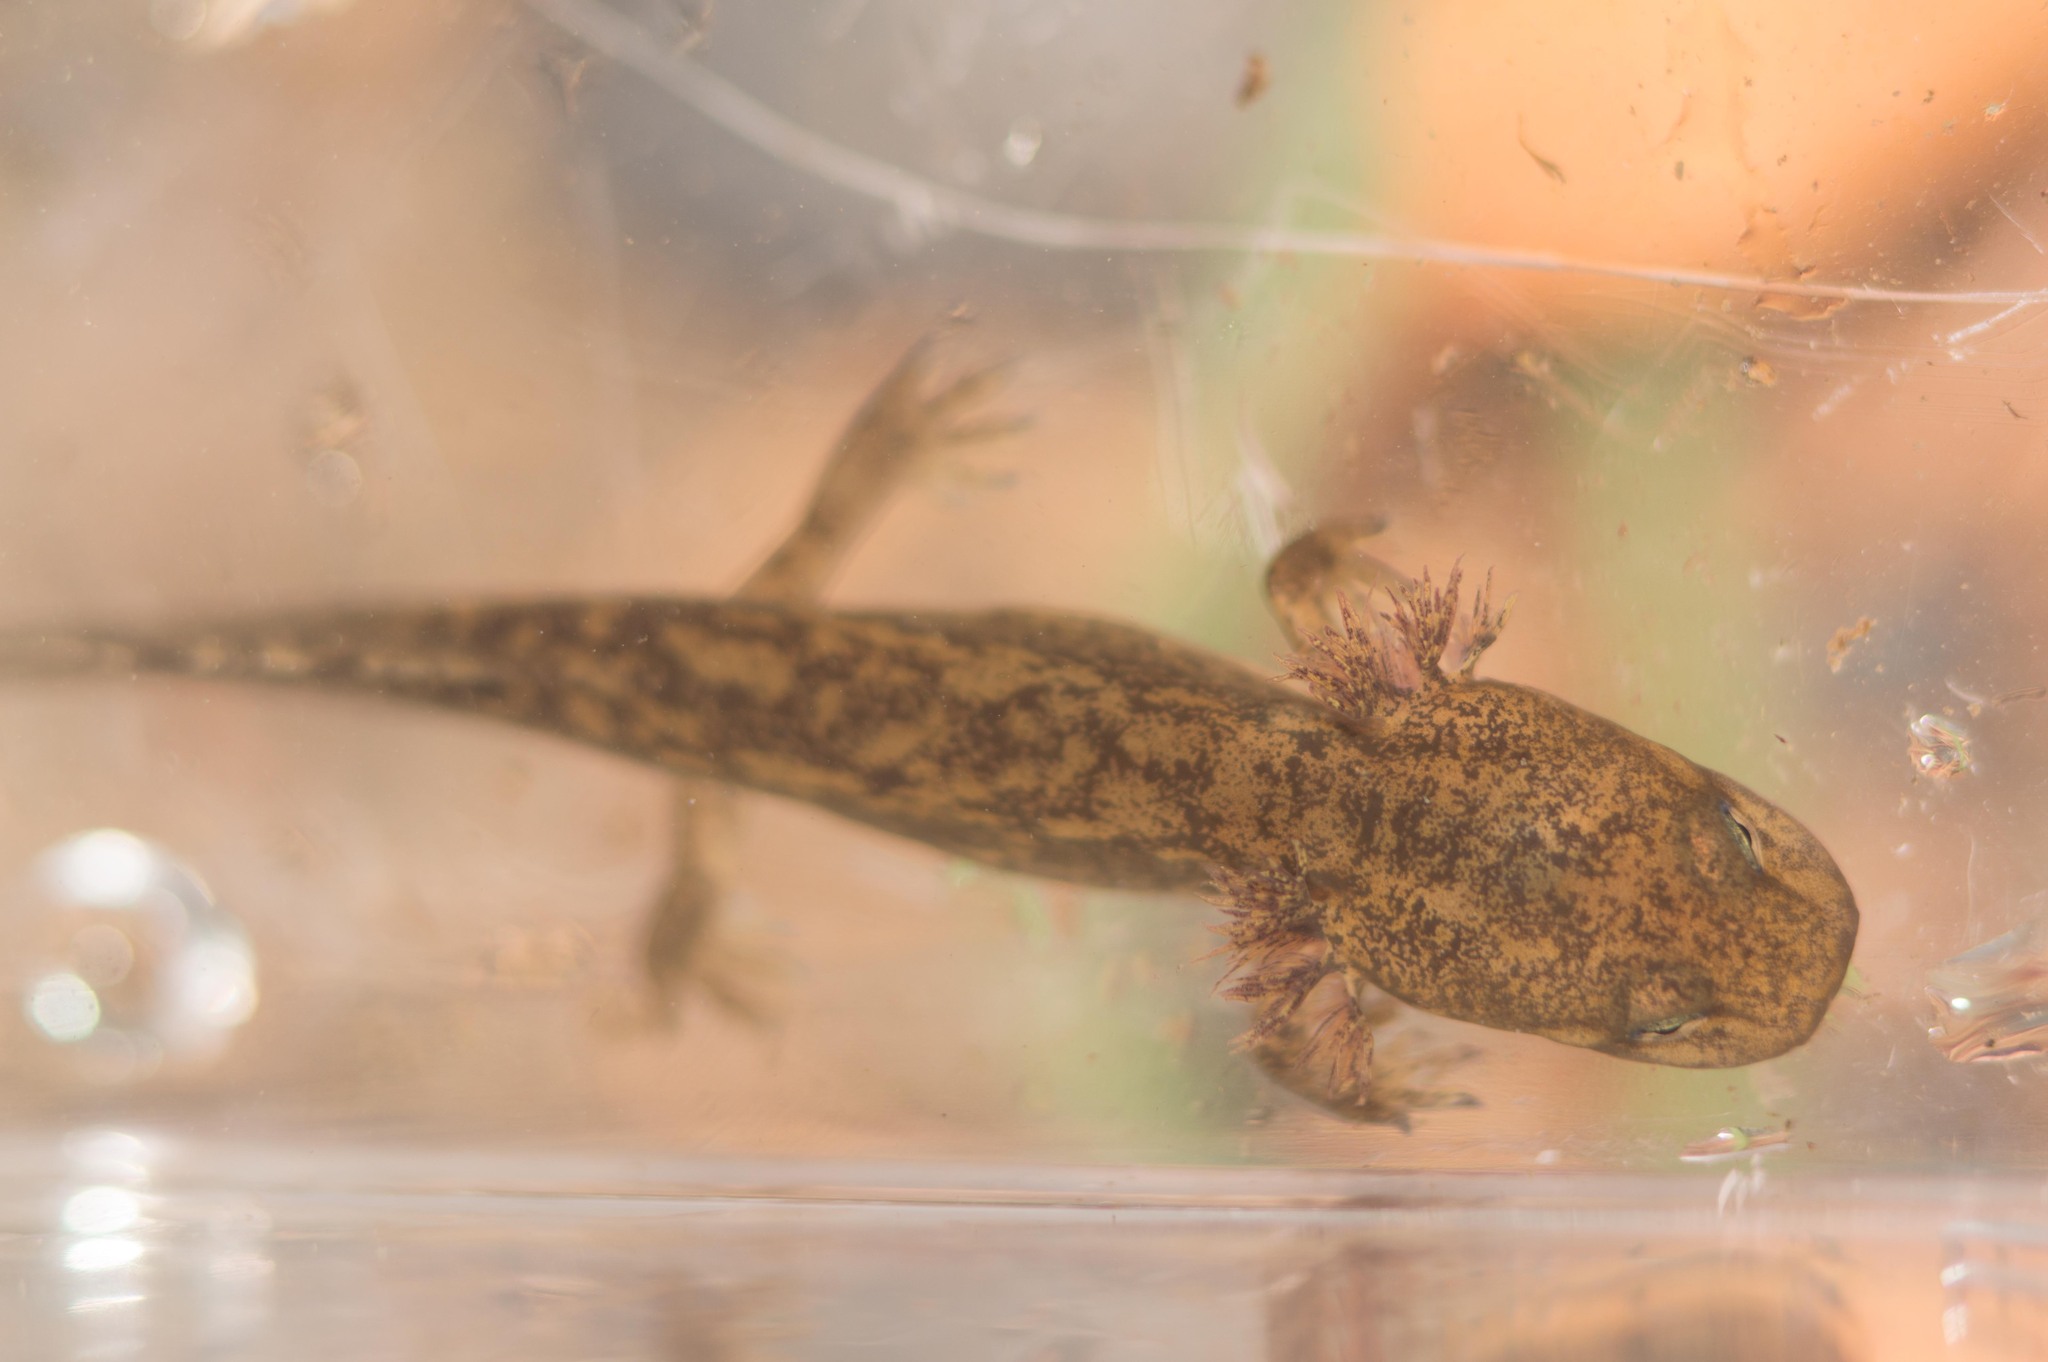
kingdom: Animalia
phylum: Chordata
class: Amphibia
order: Caudata
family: Ambystomatidae
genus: Dicamptodon
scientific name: Dicamptodon ensatus
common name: California giant salamander
